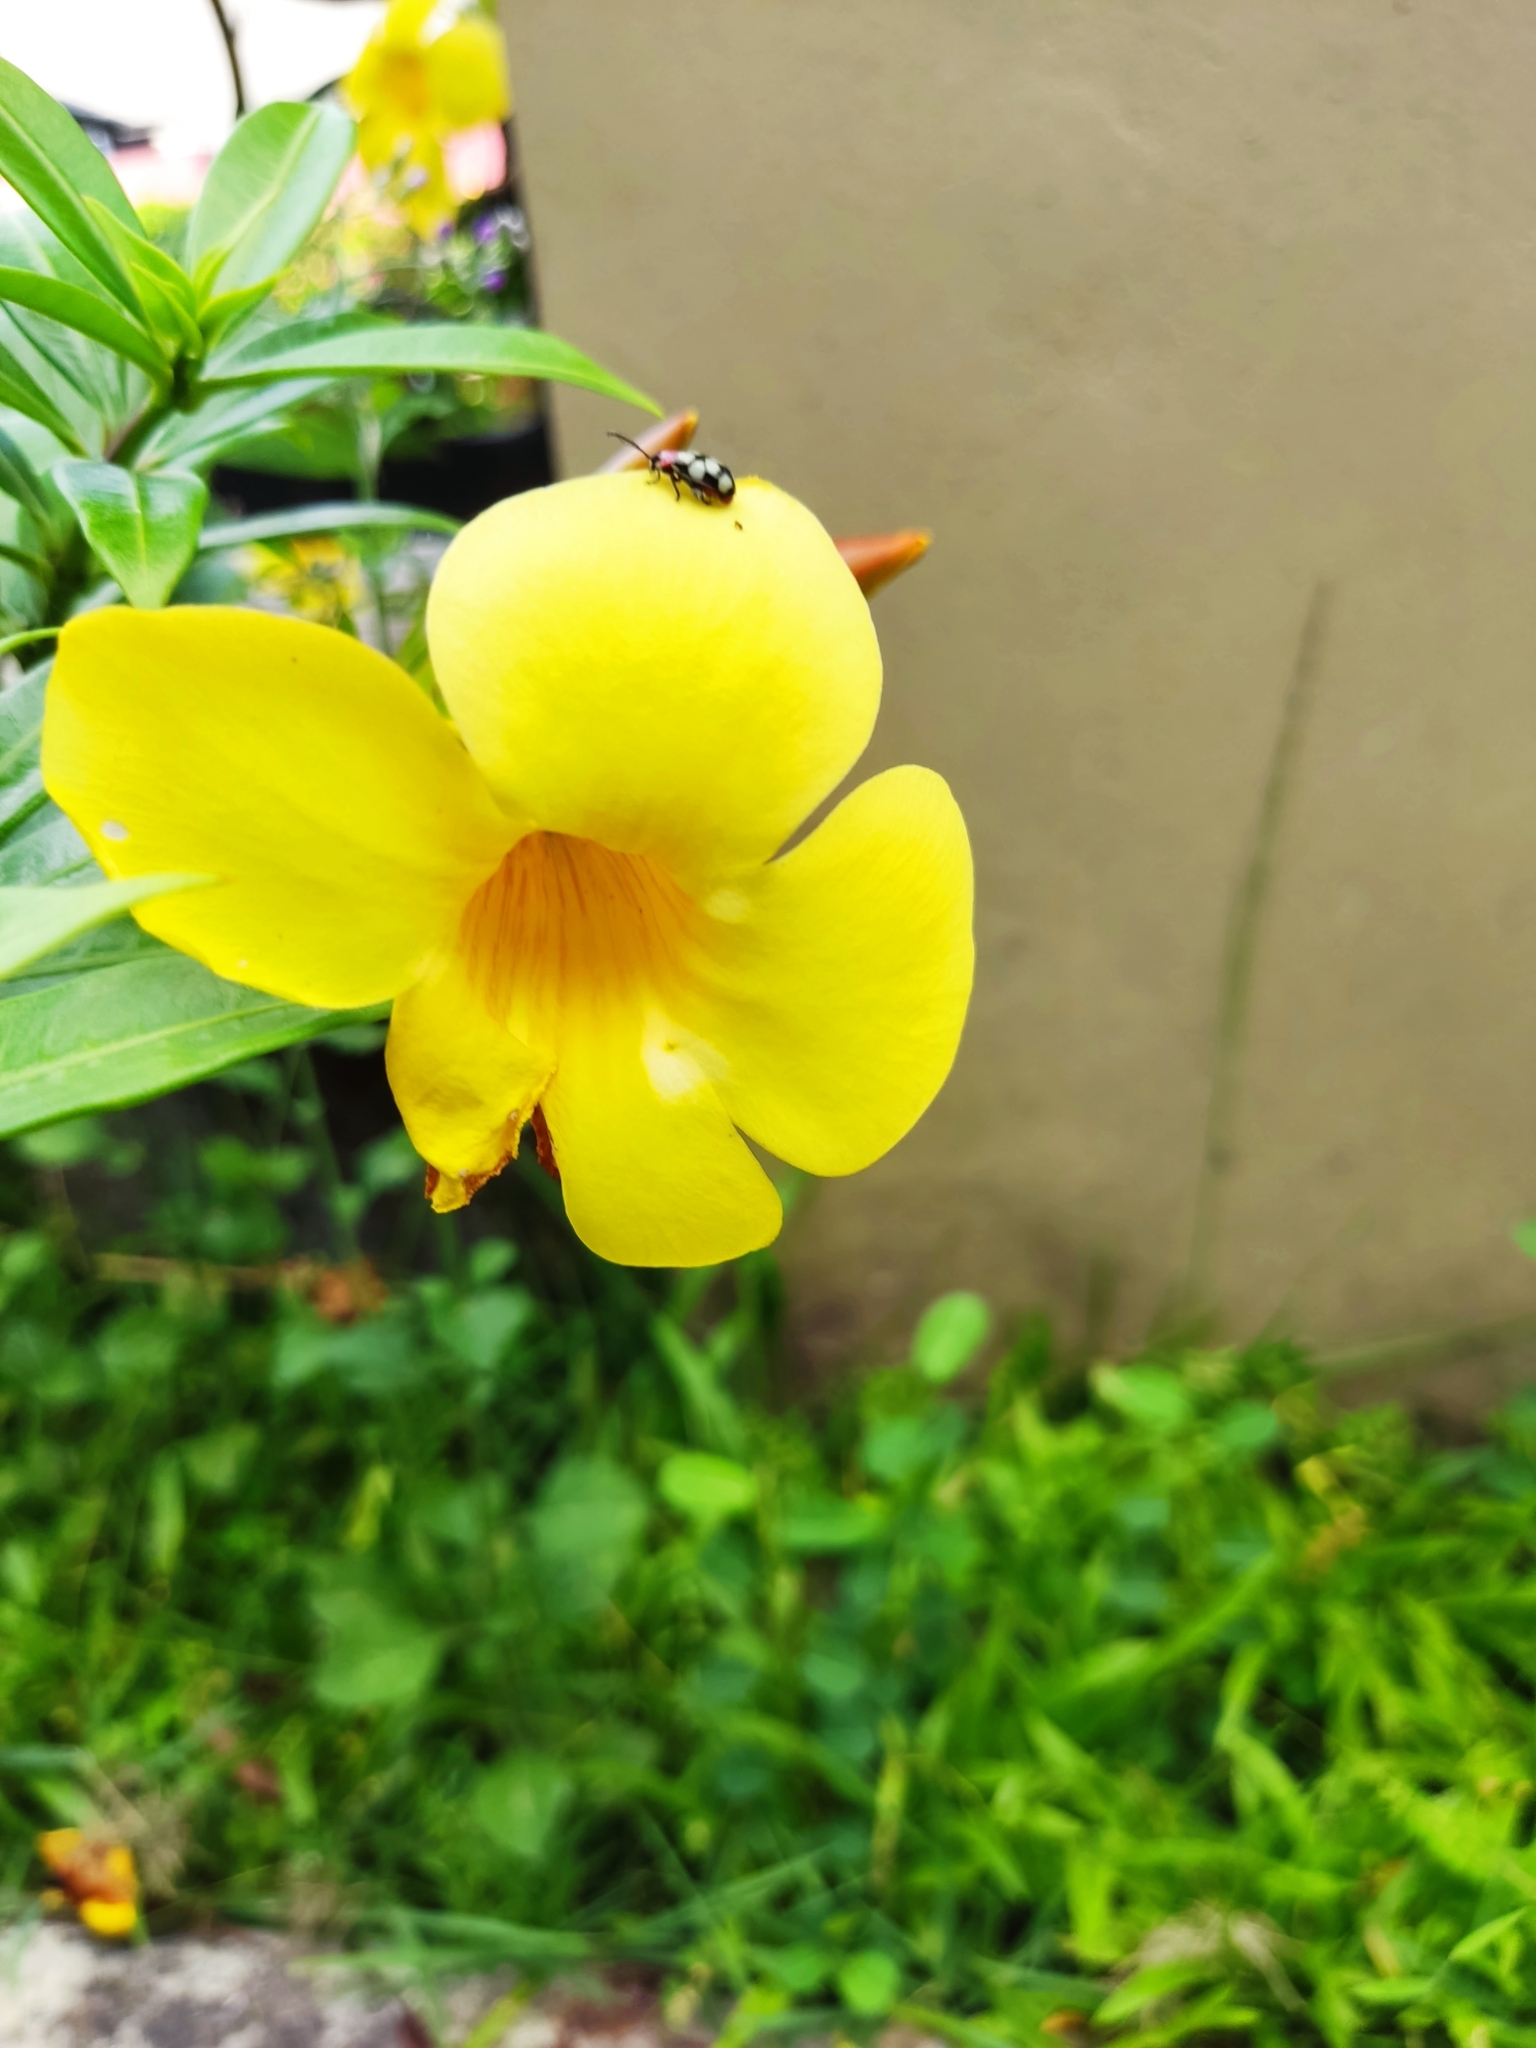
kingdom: Plantae
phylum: Tracheophyta
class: Magnoliopsida
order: Gentianales
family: Apocynaceae
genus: Allamanda
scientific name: Allamanda cathartica
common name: Golden trumpet
